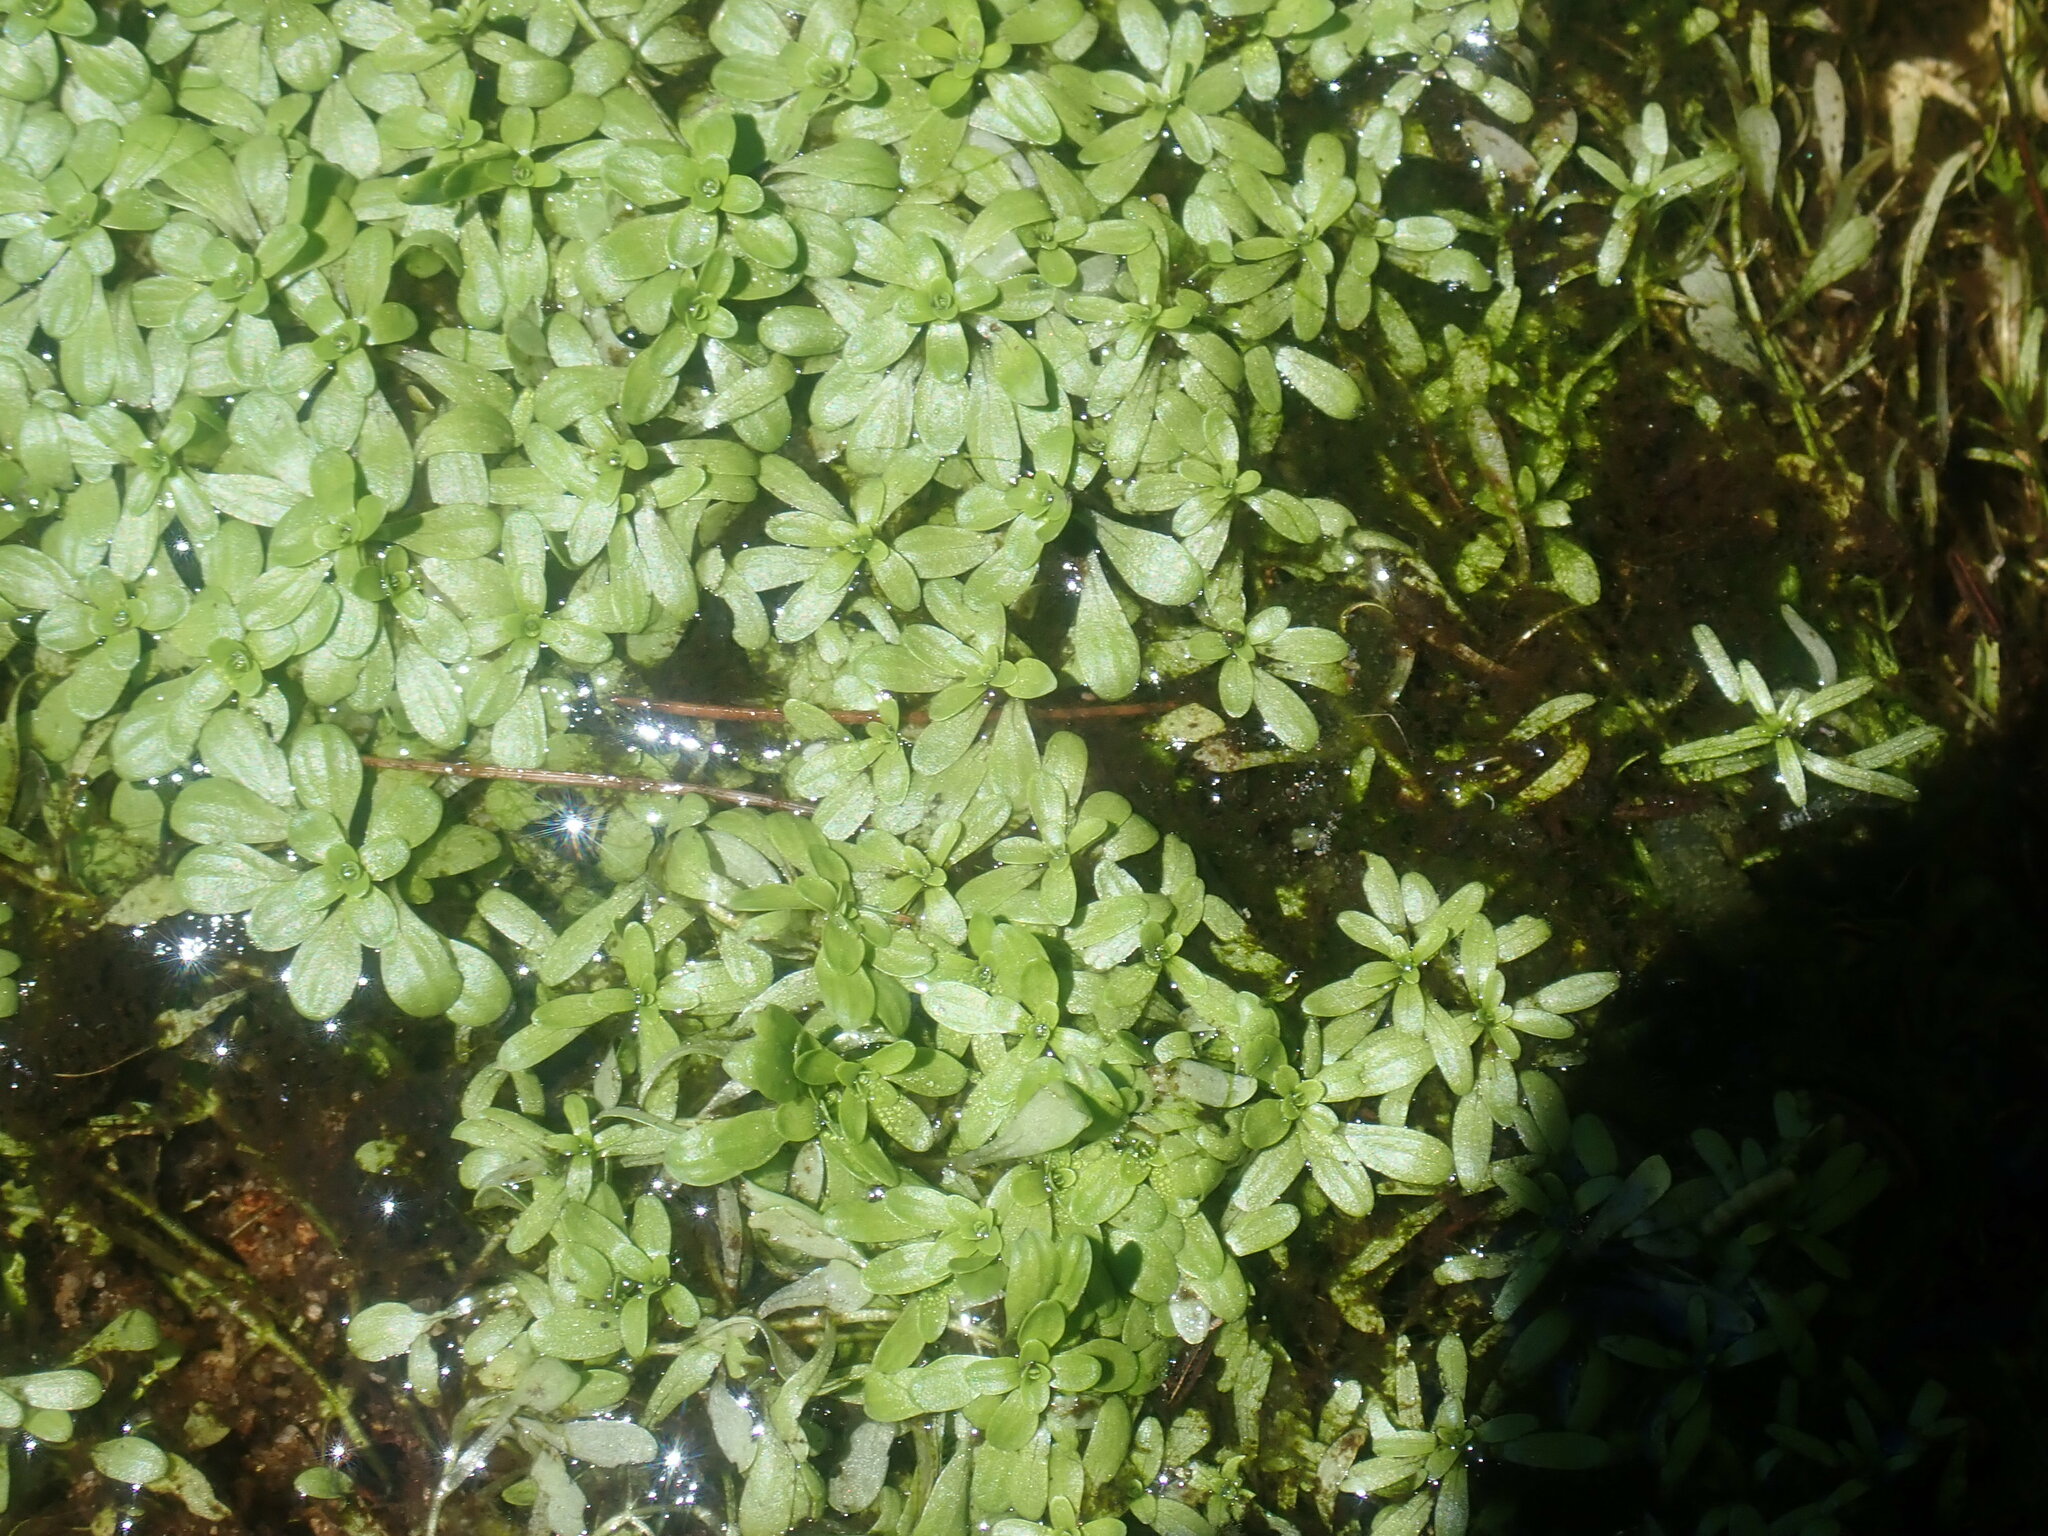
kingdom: Plantae
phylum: Tracheophyta
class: Magnoliopsida
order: Lamiales
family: Plantaginaceae
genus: Callitriche
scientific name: Callitriche
